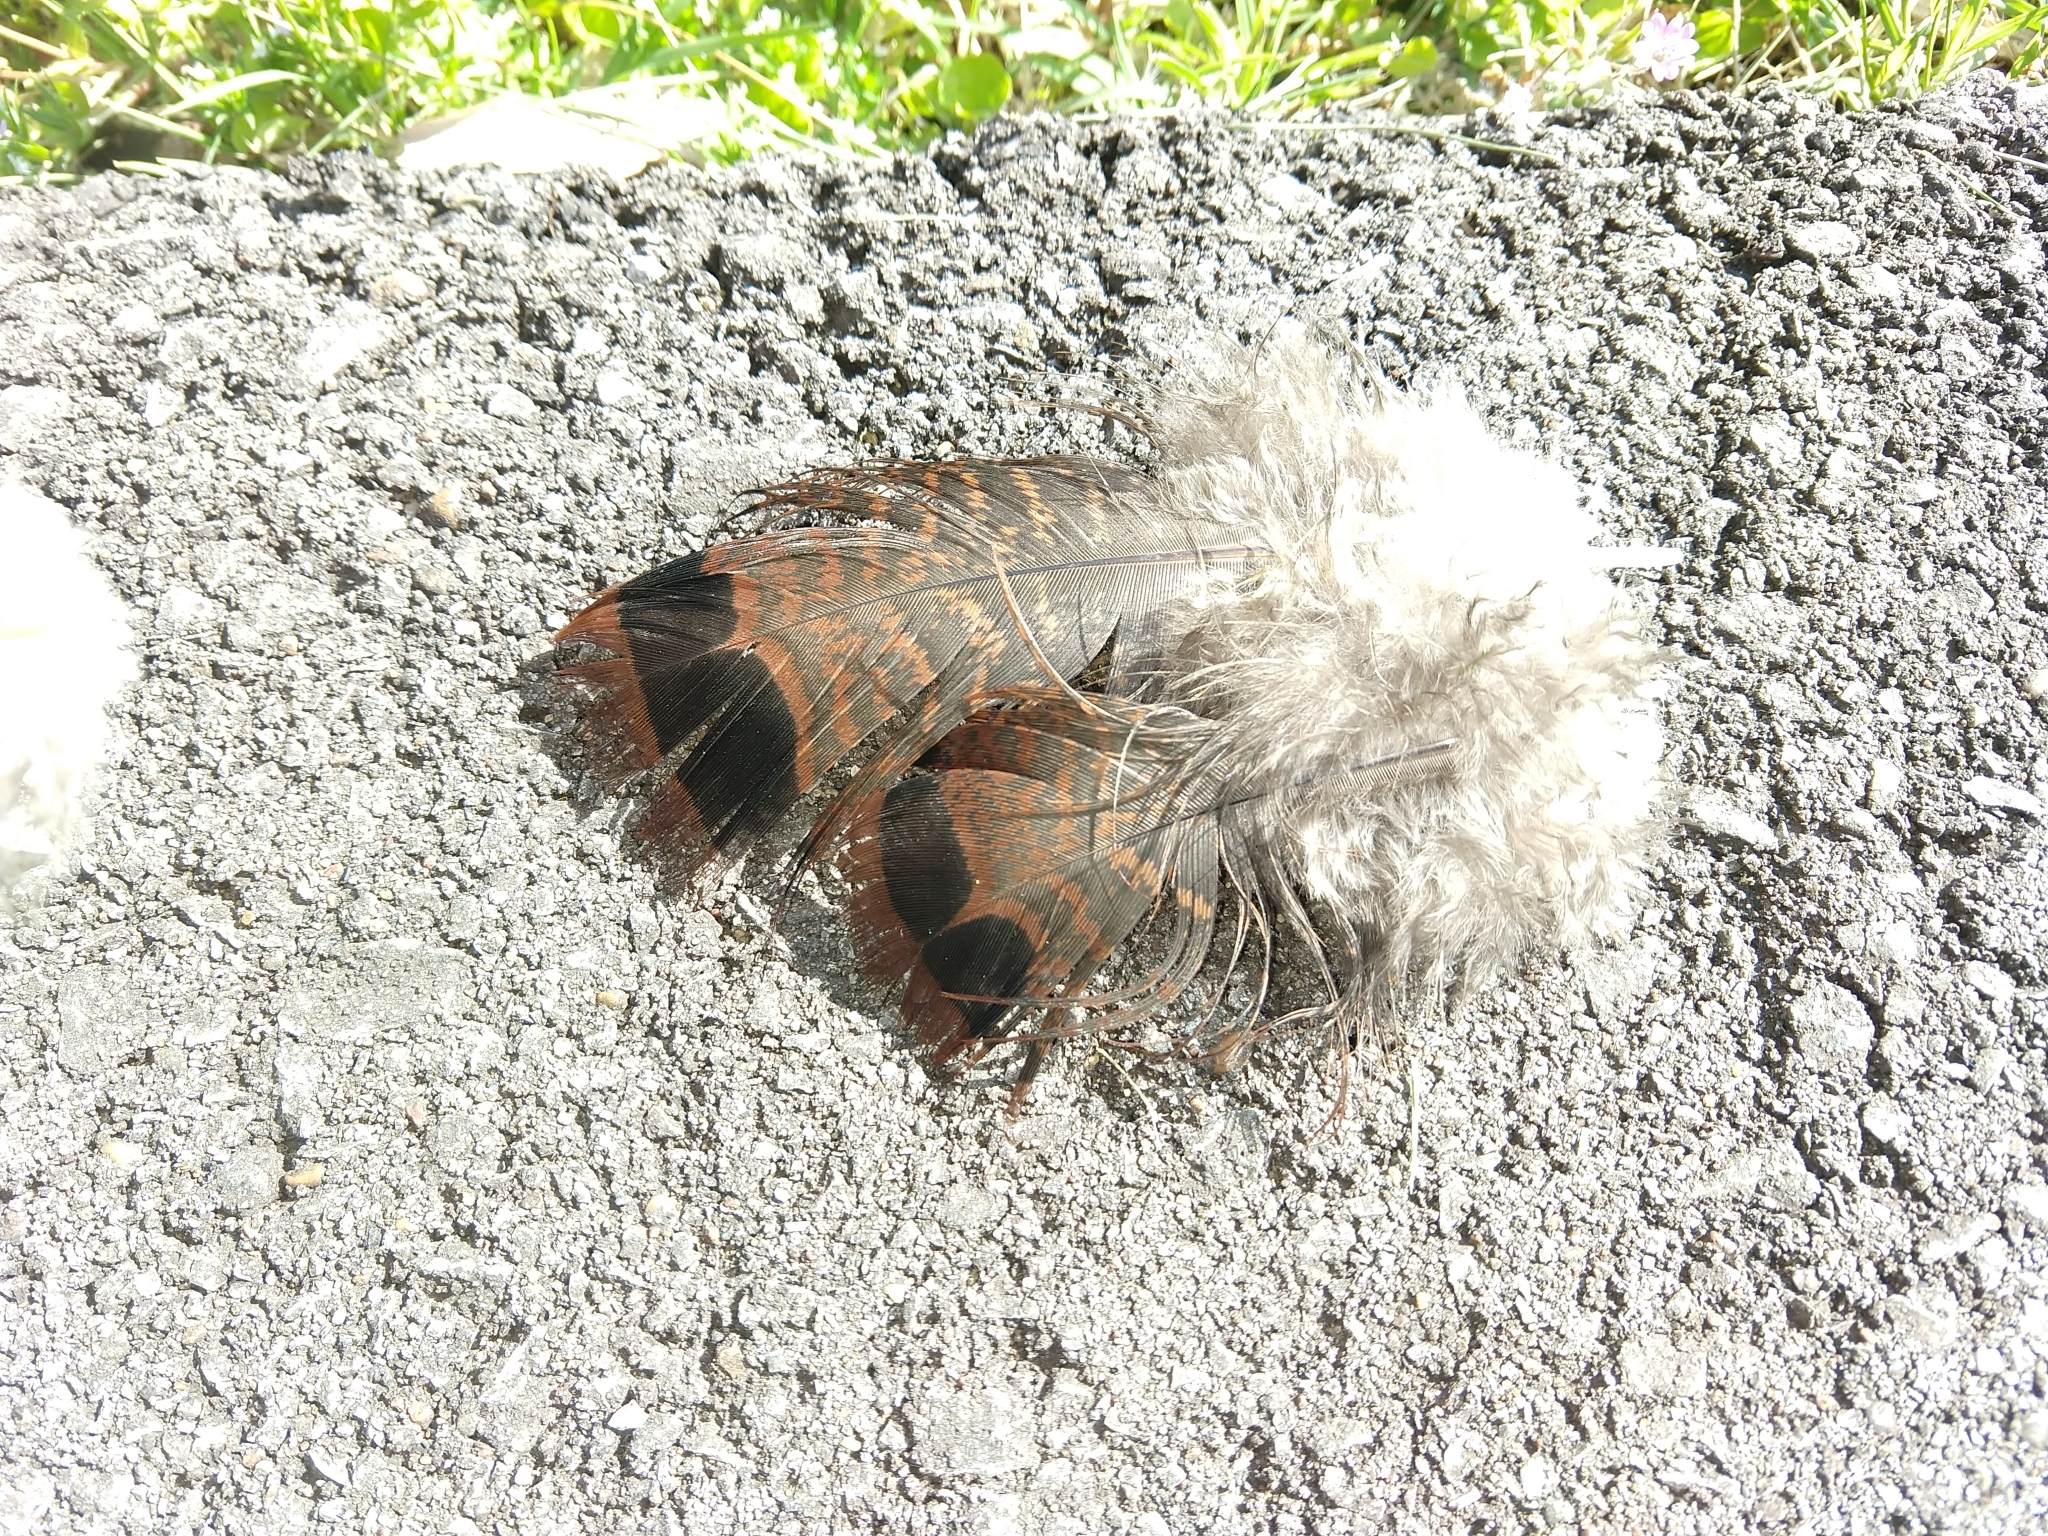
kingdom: Animalia
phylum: Chordata
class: Aves
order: Galliformes
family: Phasianidae
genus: Meleagris
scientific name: Meleagris gallopavo
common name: Wild turkey
